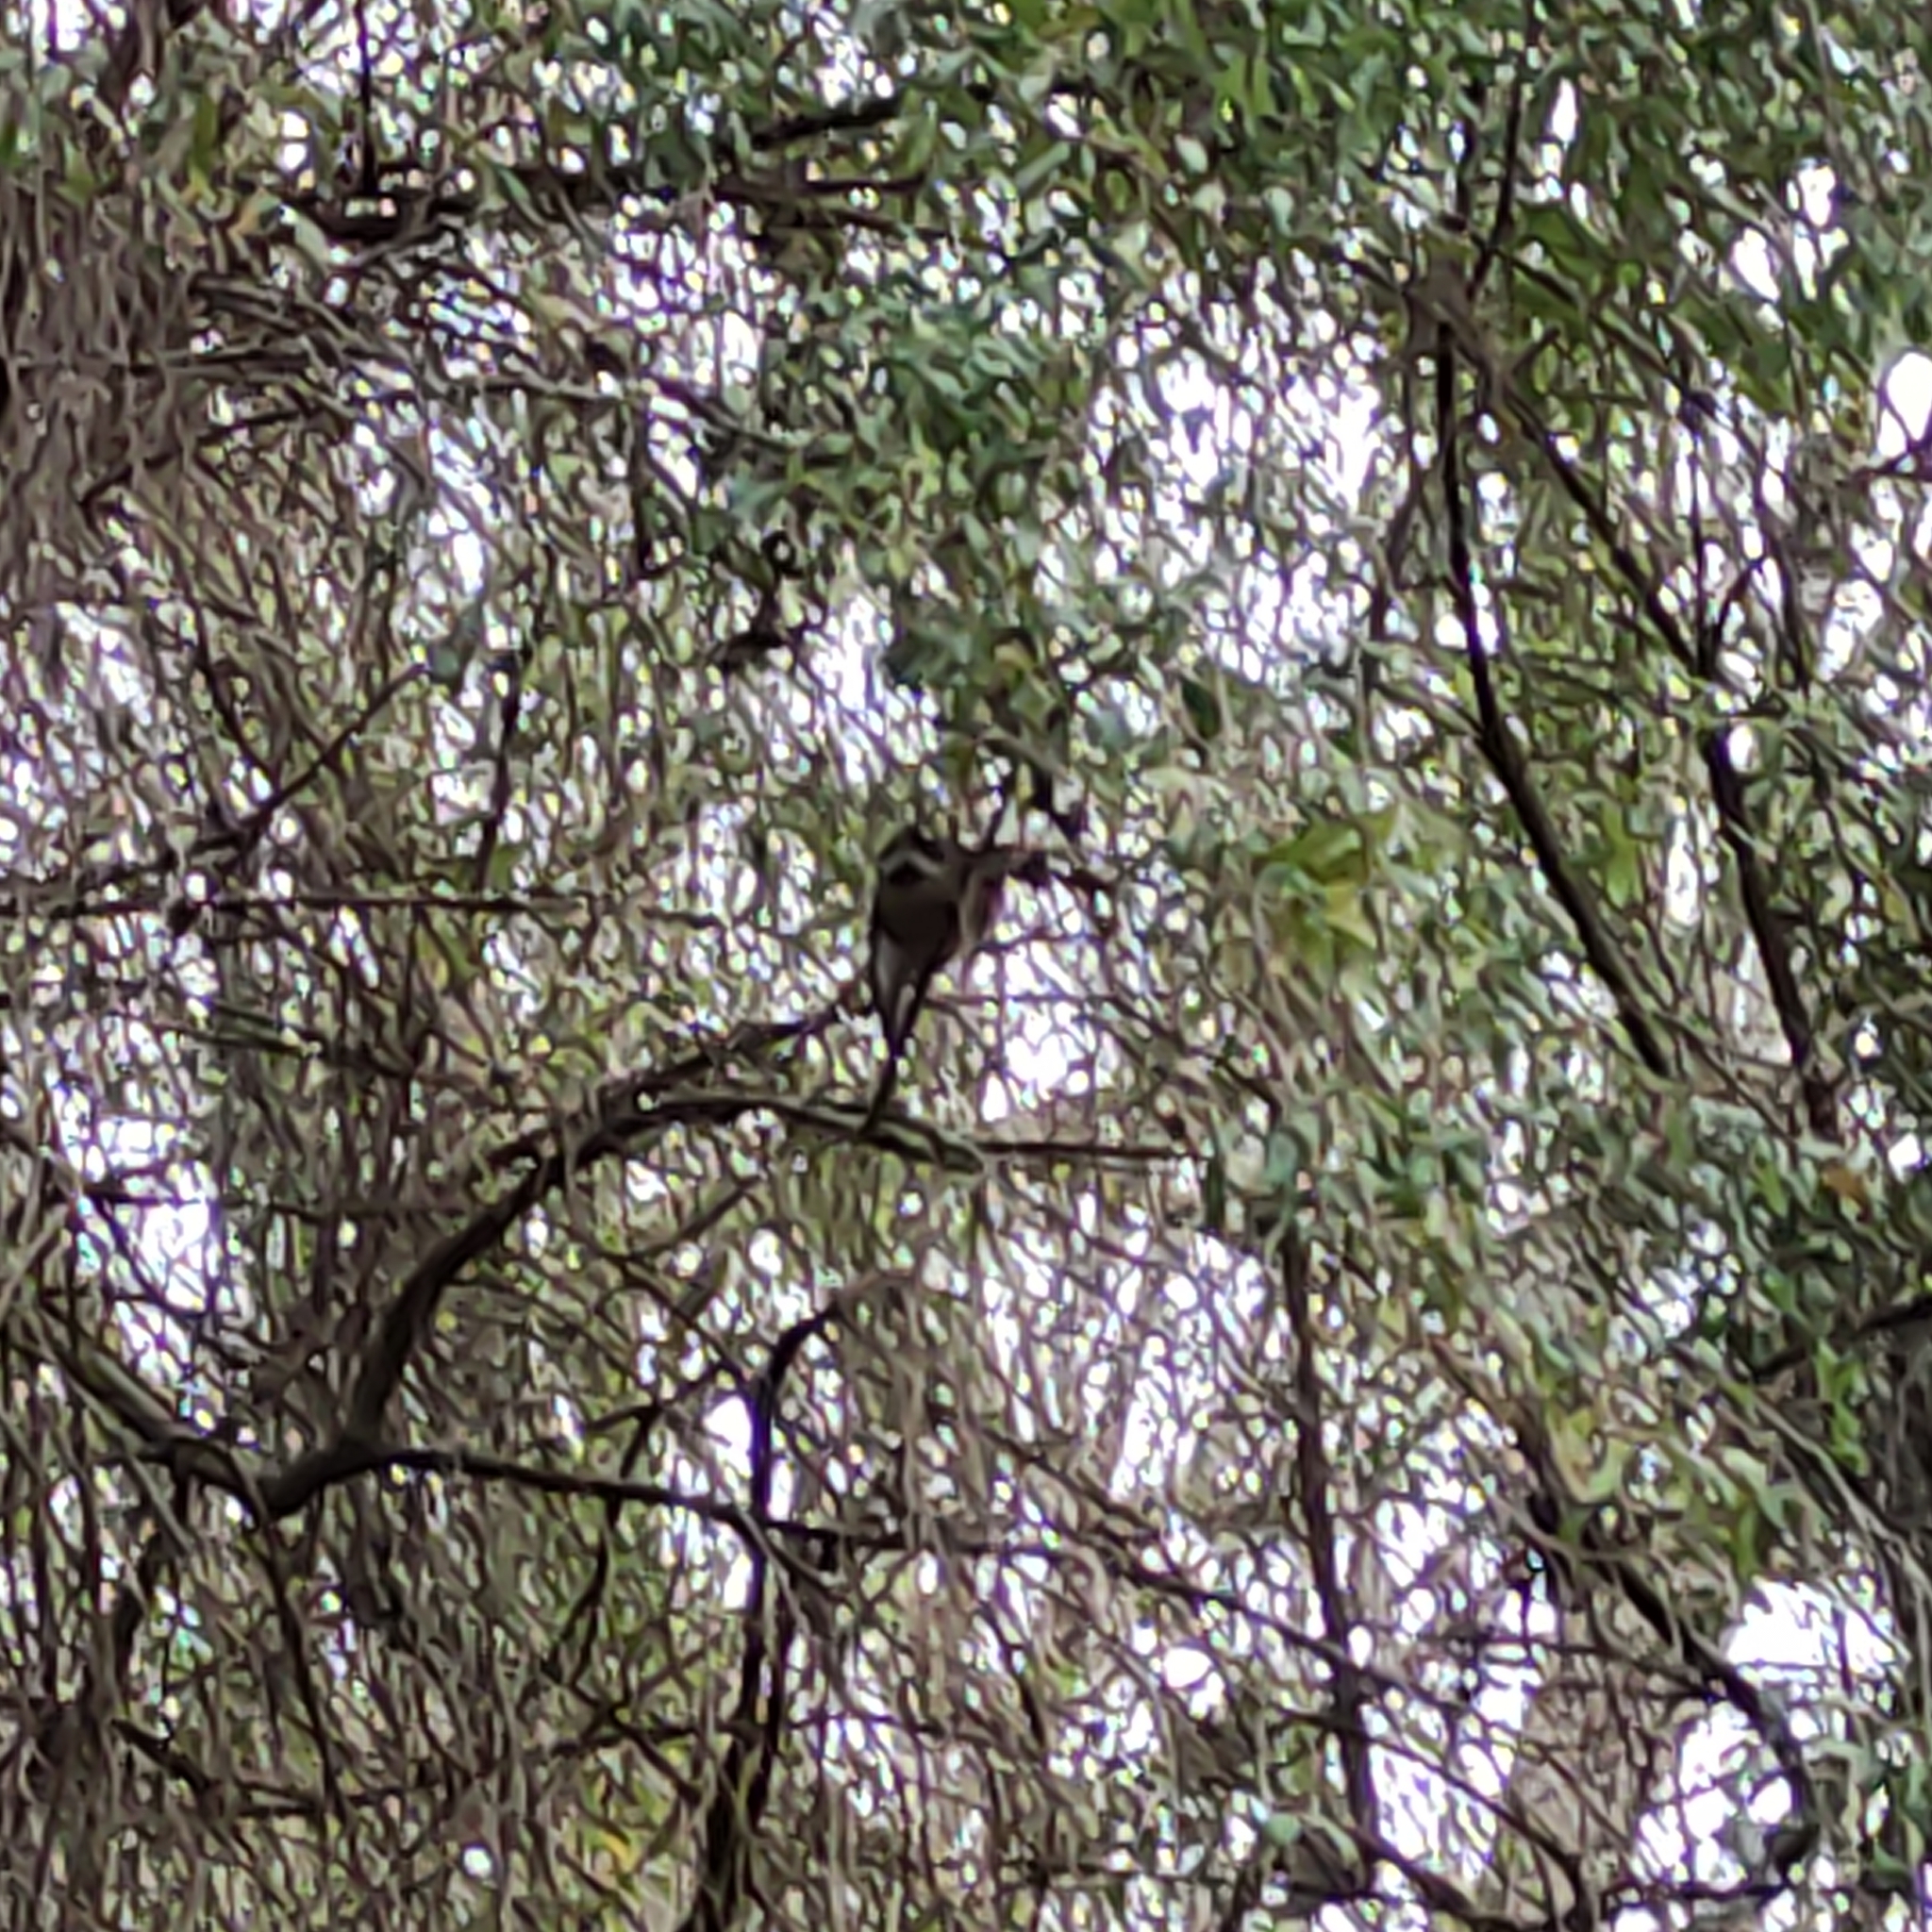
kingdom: Animalia
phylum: Chordata
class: Aves
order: Passeriformes
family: Rhipiduridae
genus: Rhipidura
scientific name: Rhipidura fuliginosa
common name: New zealand fantail
